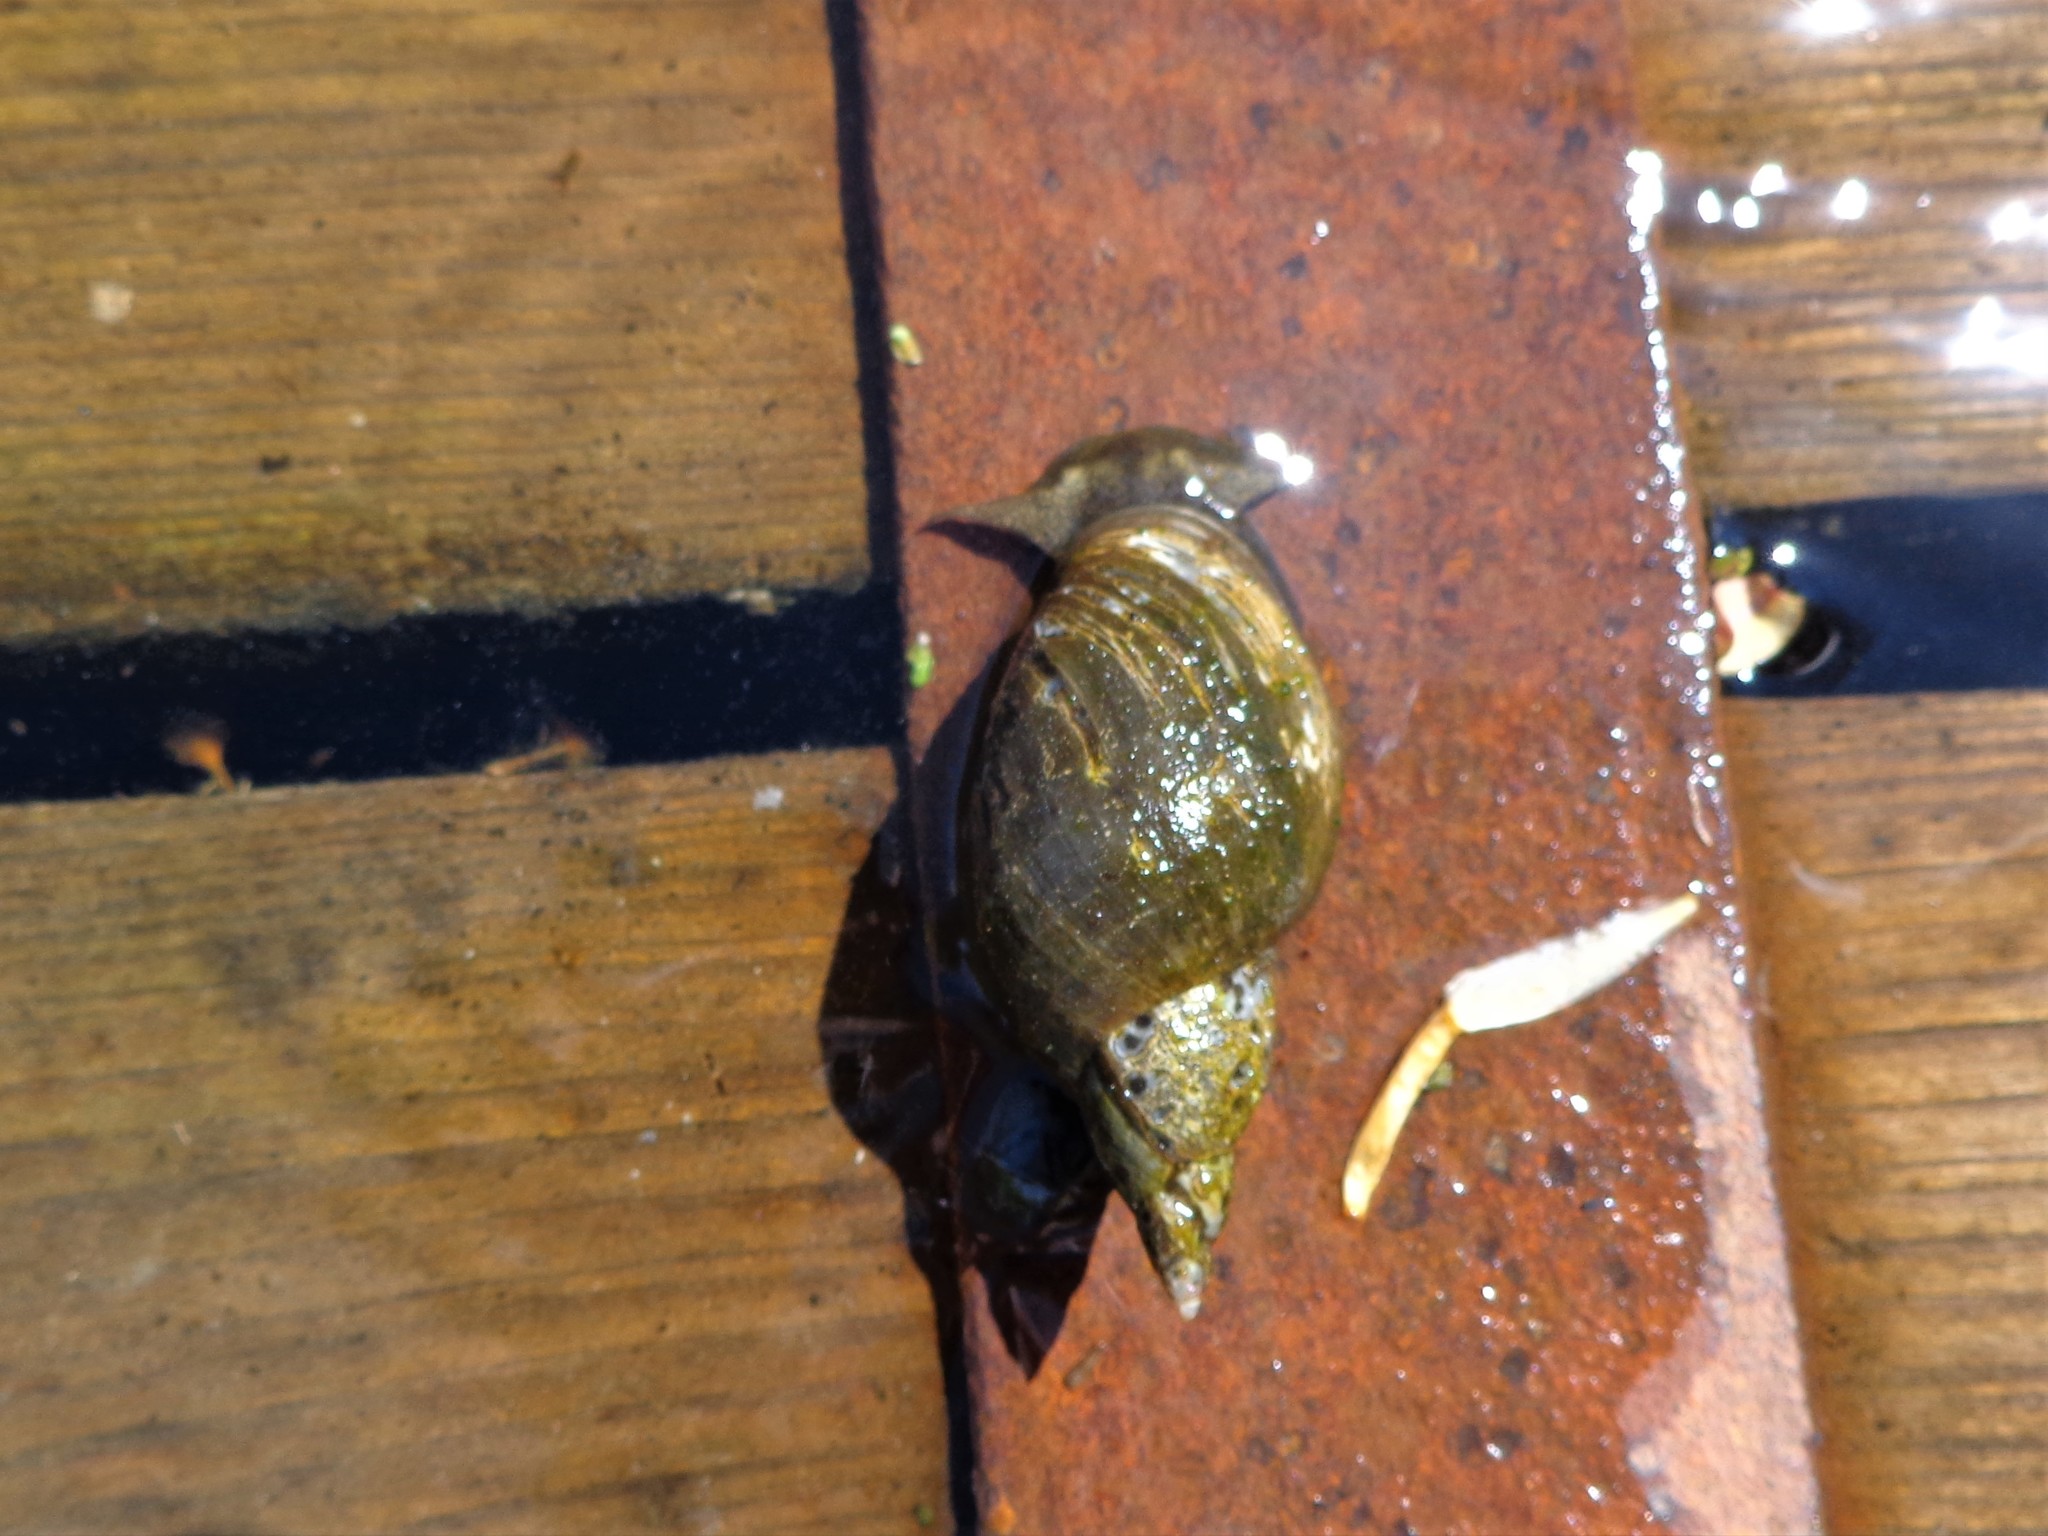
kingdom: Animalia
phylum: Mollusca
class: Gastropoda
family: Lymnaeidae
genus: Lymnaea
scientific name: Lymnaea stagnalis
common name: Great pond snail
